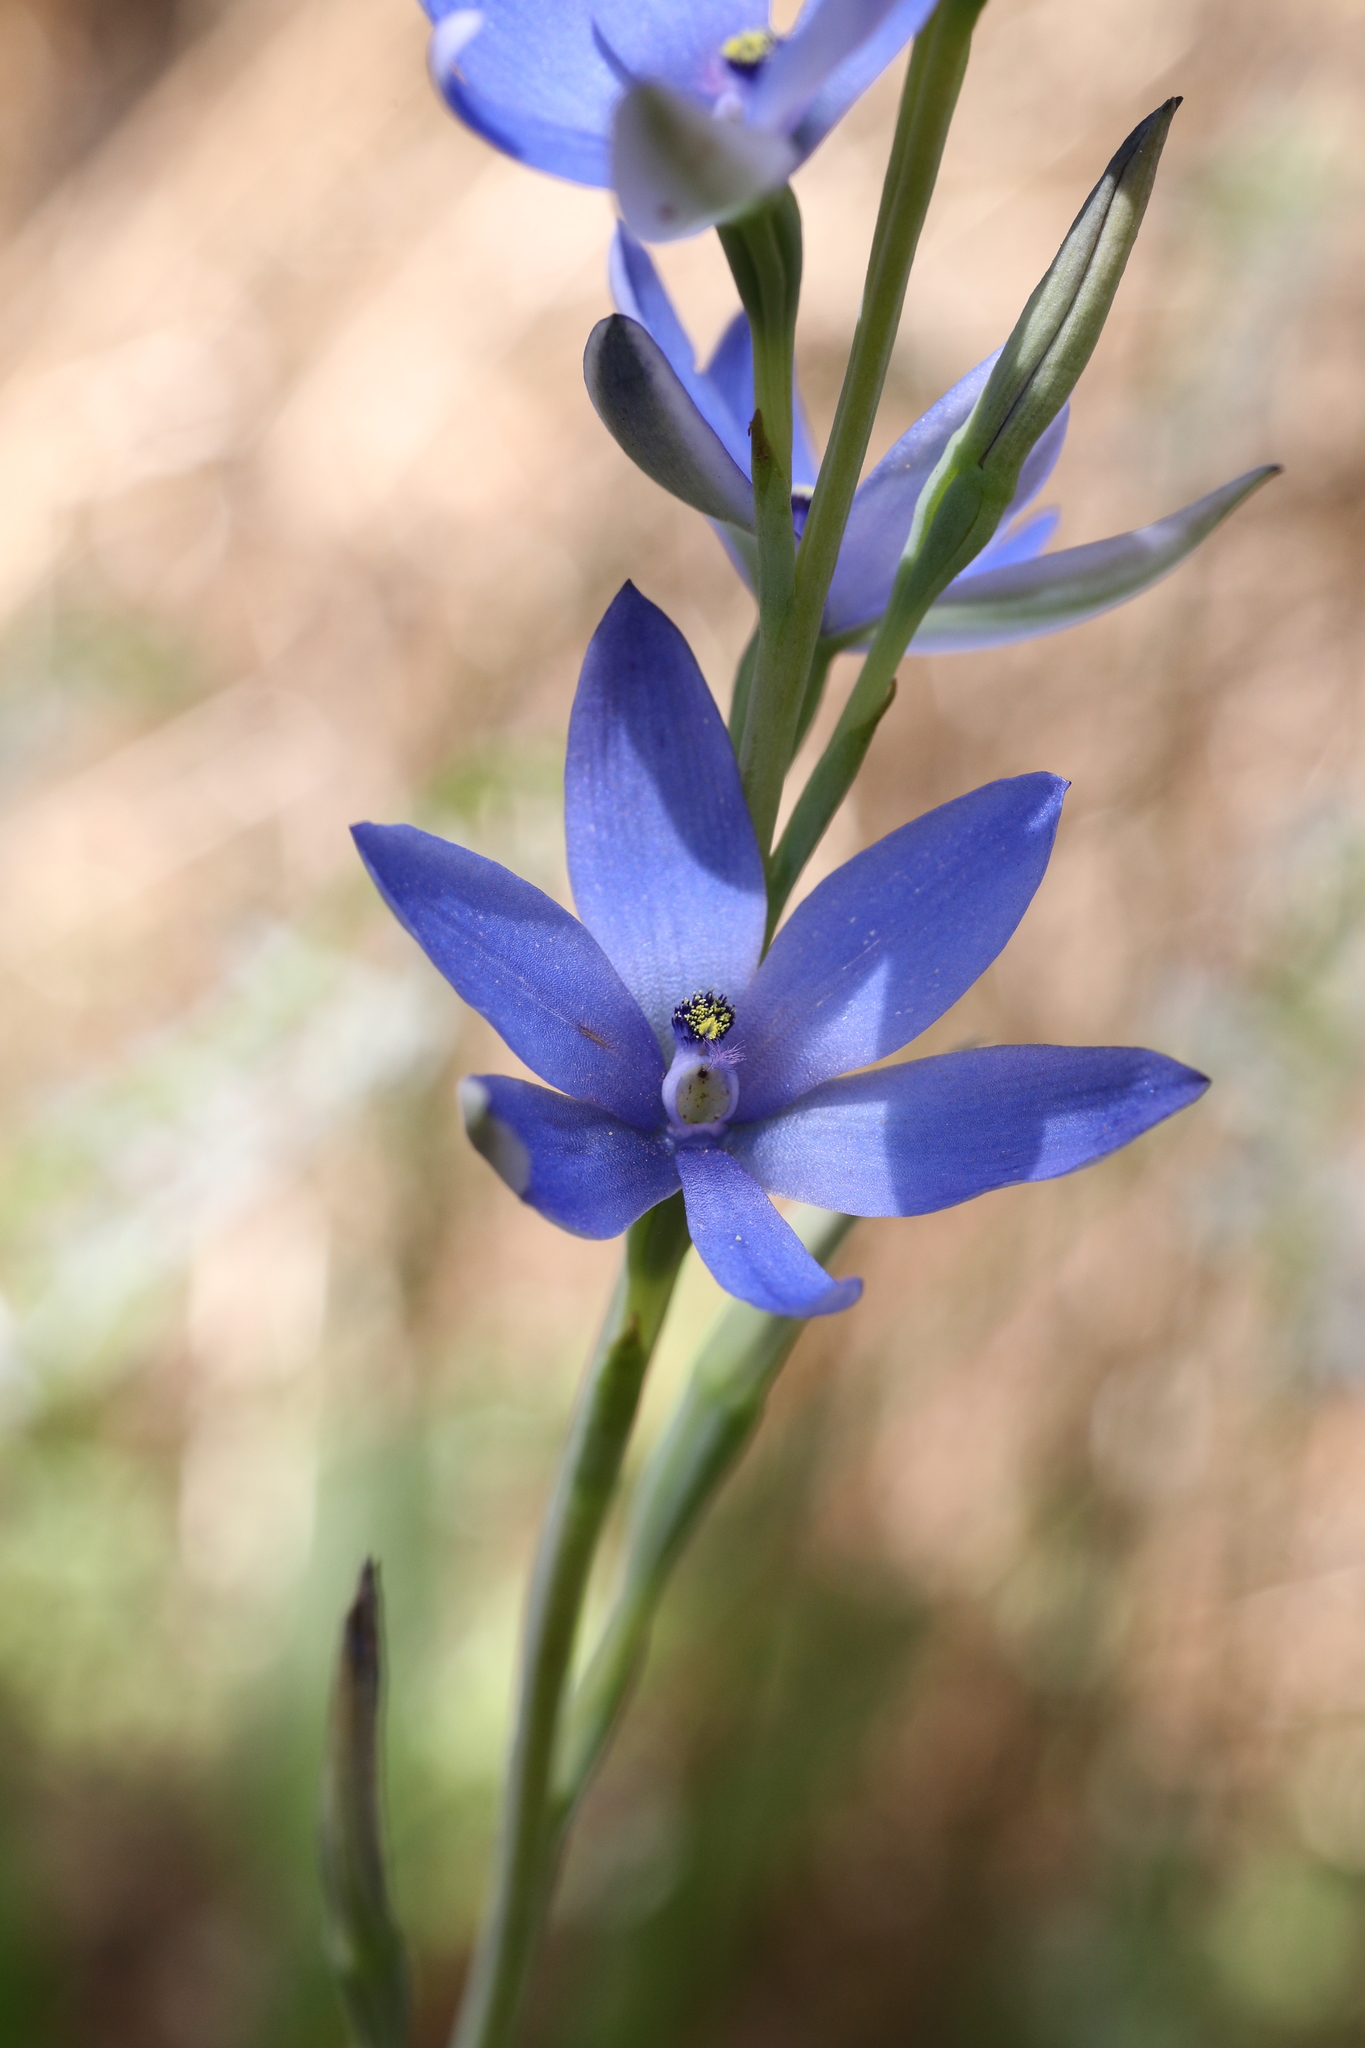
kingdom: Plantae
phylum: Tracheophyta
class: Liliopsida
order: Asparagales
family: Orchidaceae
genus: Thelymitra
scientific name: Thelymitra crinita
